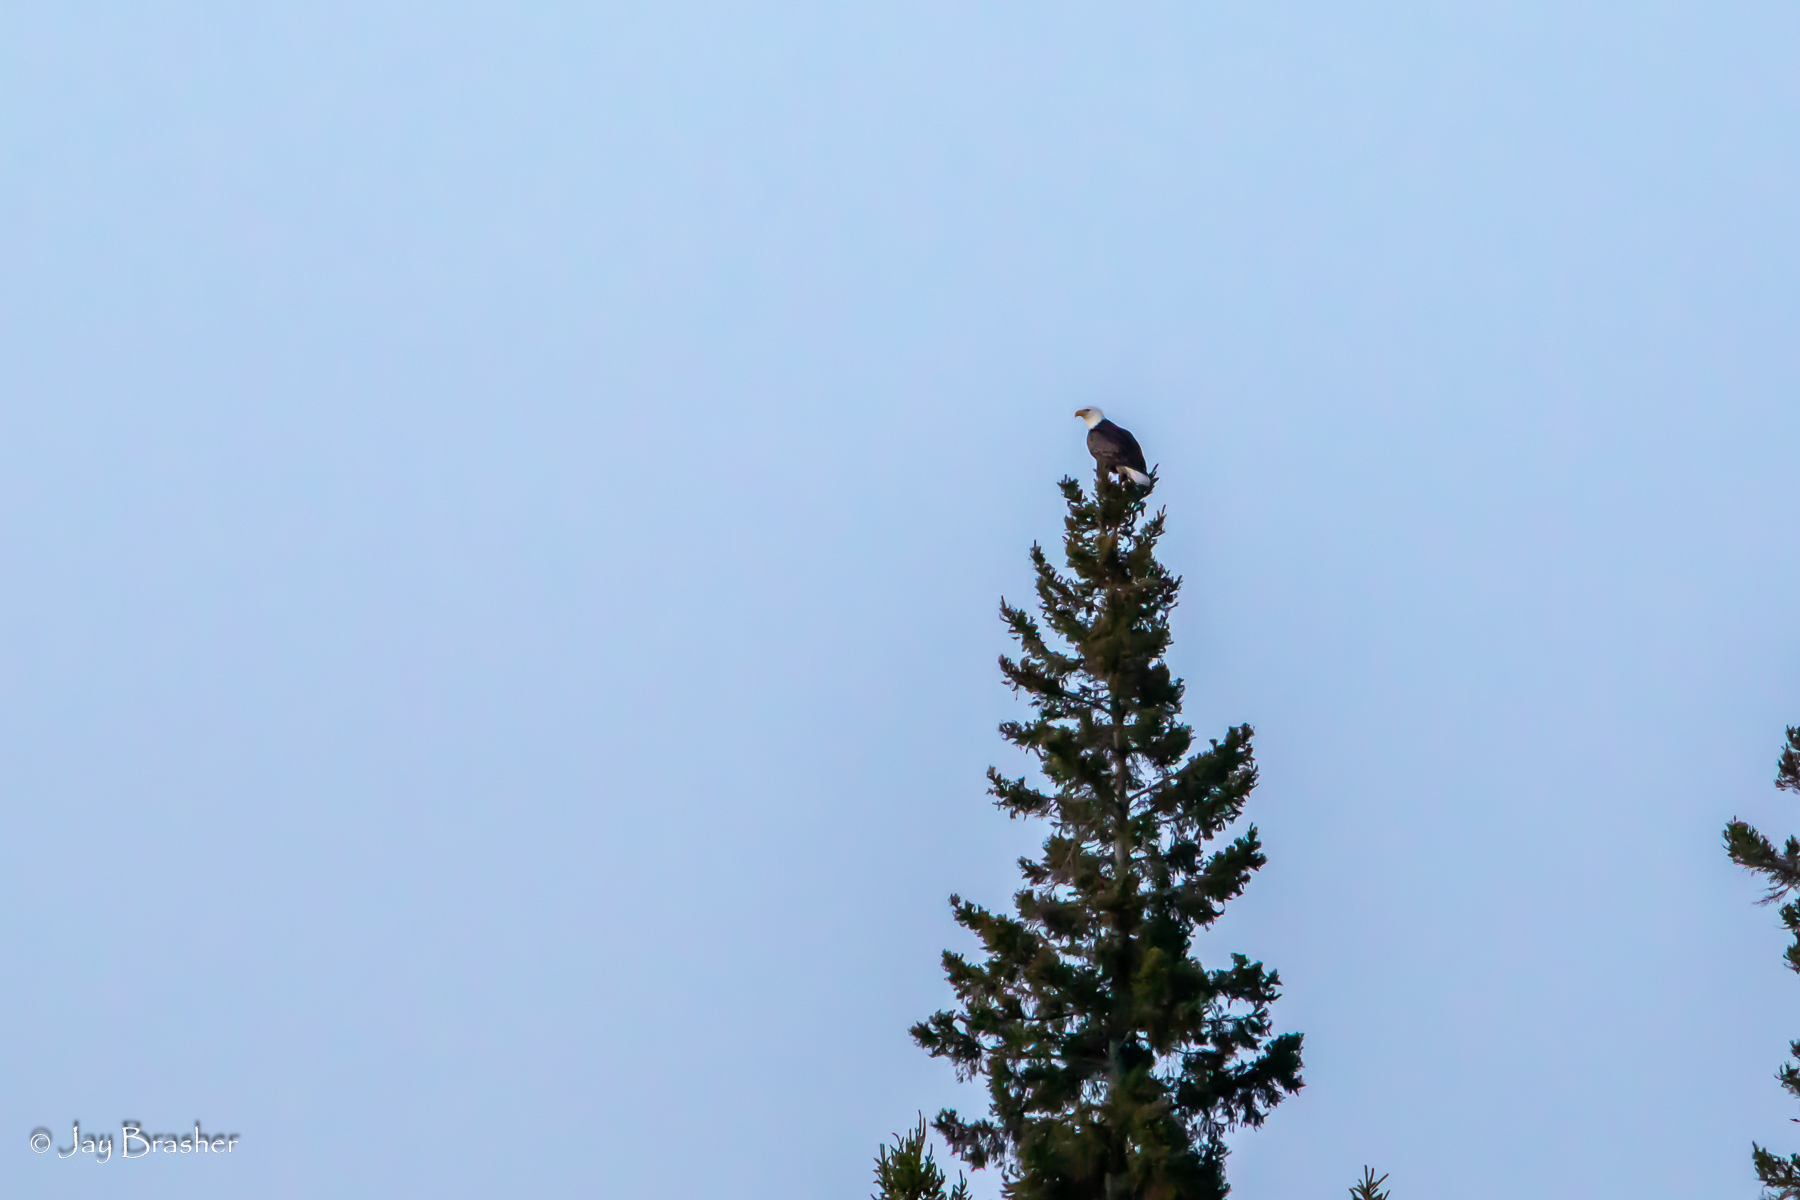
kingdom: Animalia
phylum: Chordata
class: Aves
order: Accipitriformes
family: Accipitridae
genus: Haliaeetus
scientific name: Haliaeetus leucocephalus
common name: Bald eagle
